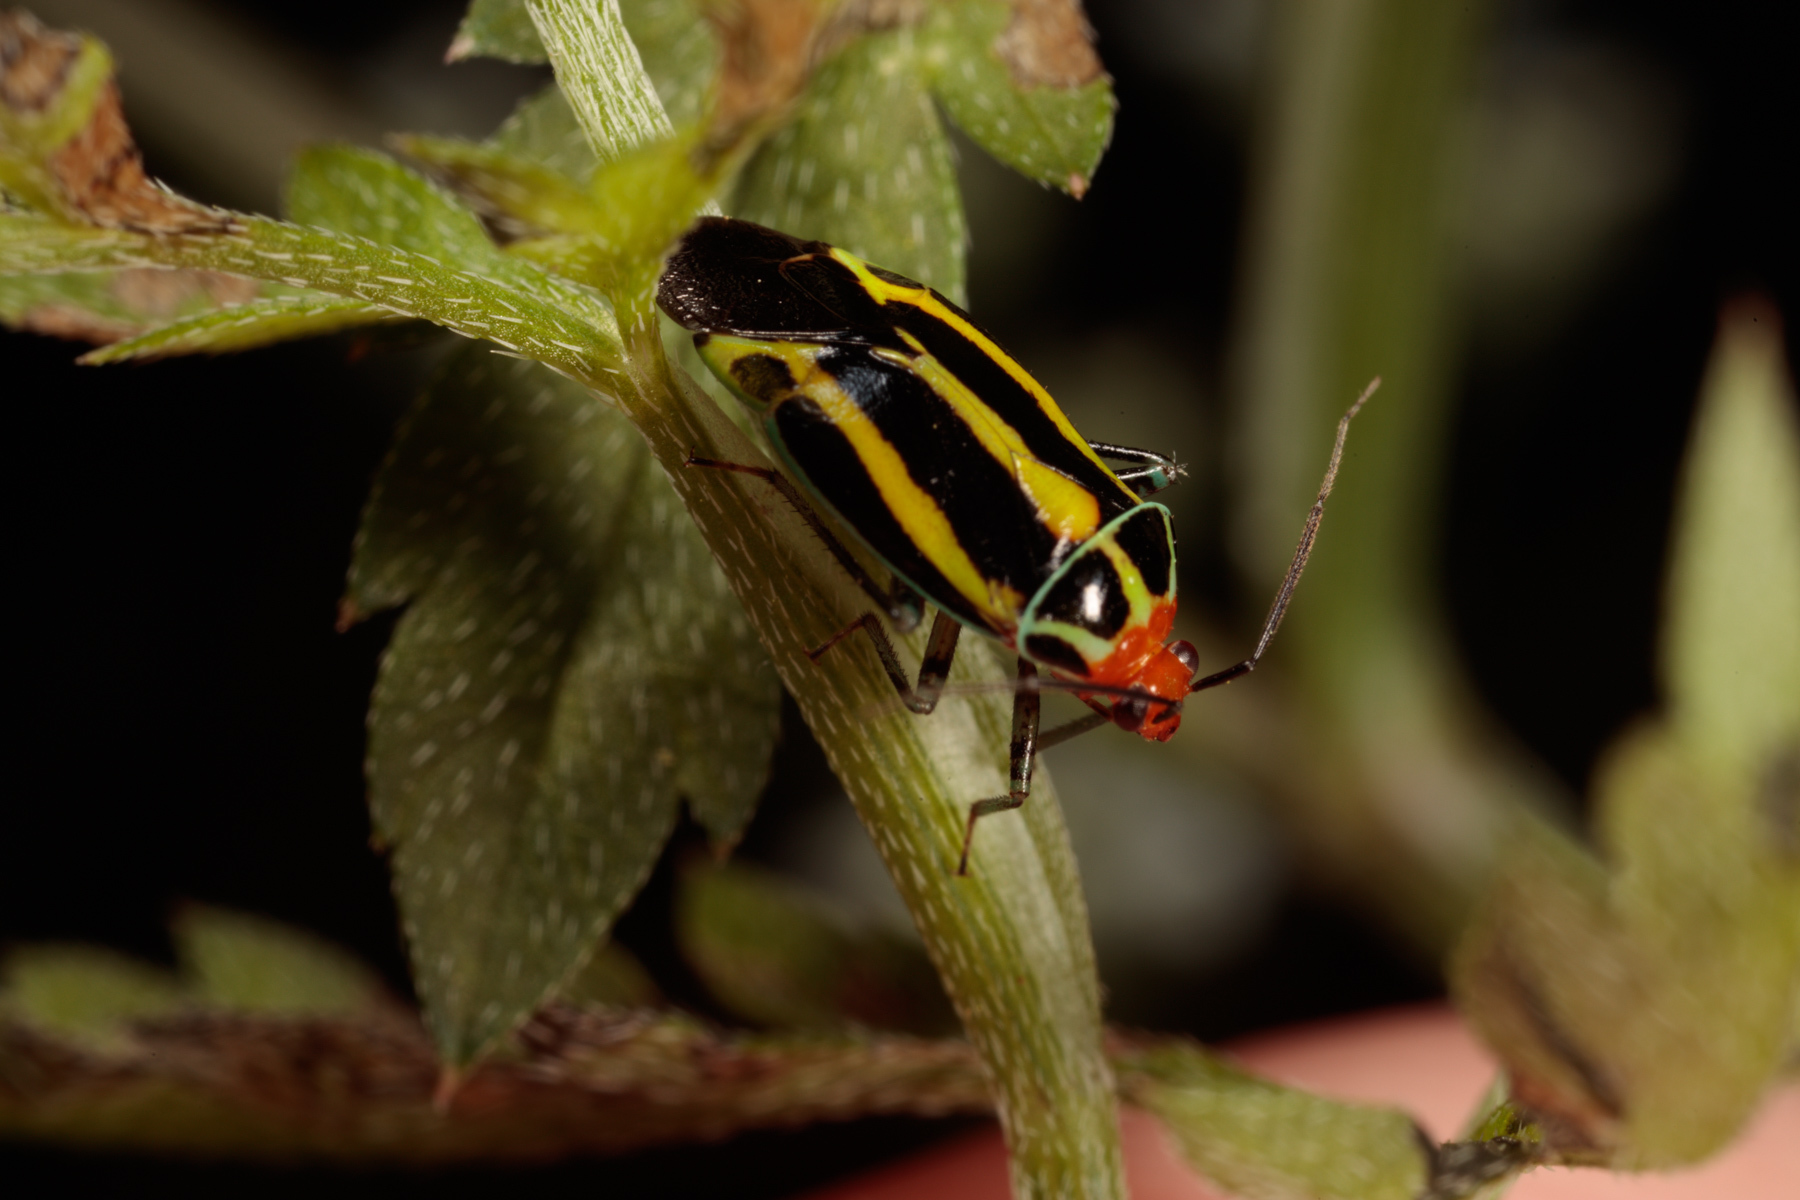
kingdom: Animalia
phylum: Arthropoda
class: Insecta
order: Hemiptera
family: Miridae
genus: Poecilocapsus
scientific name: Poecilocapsus lineatus
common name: Four-lined plant bug
